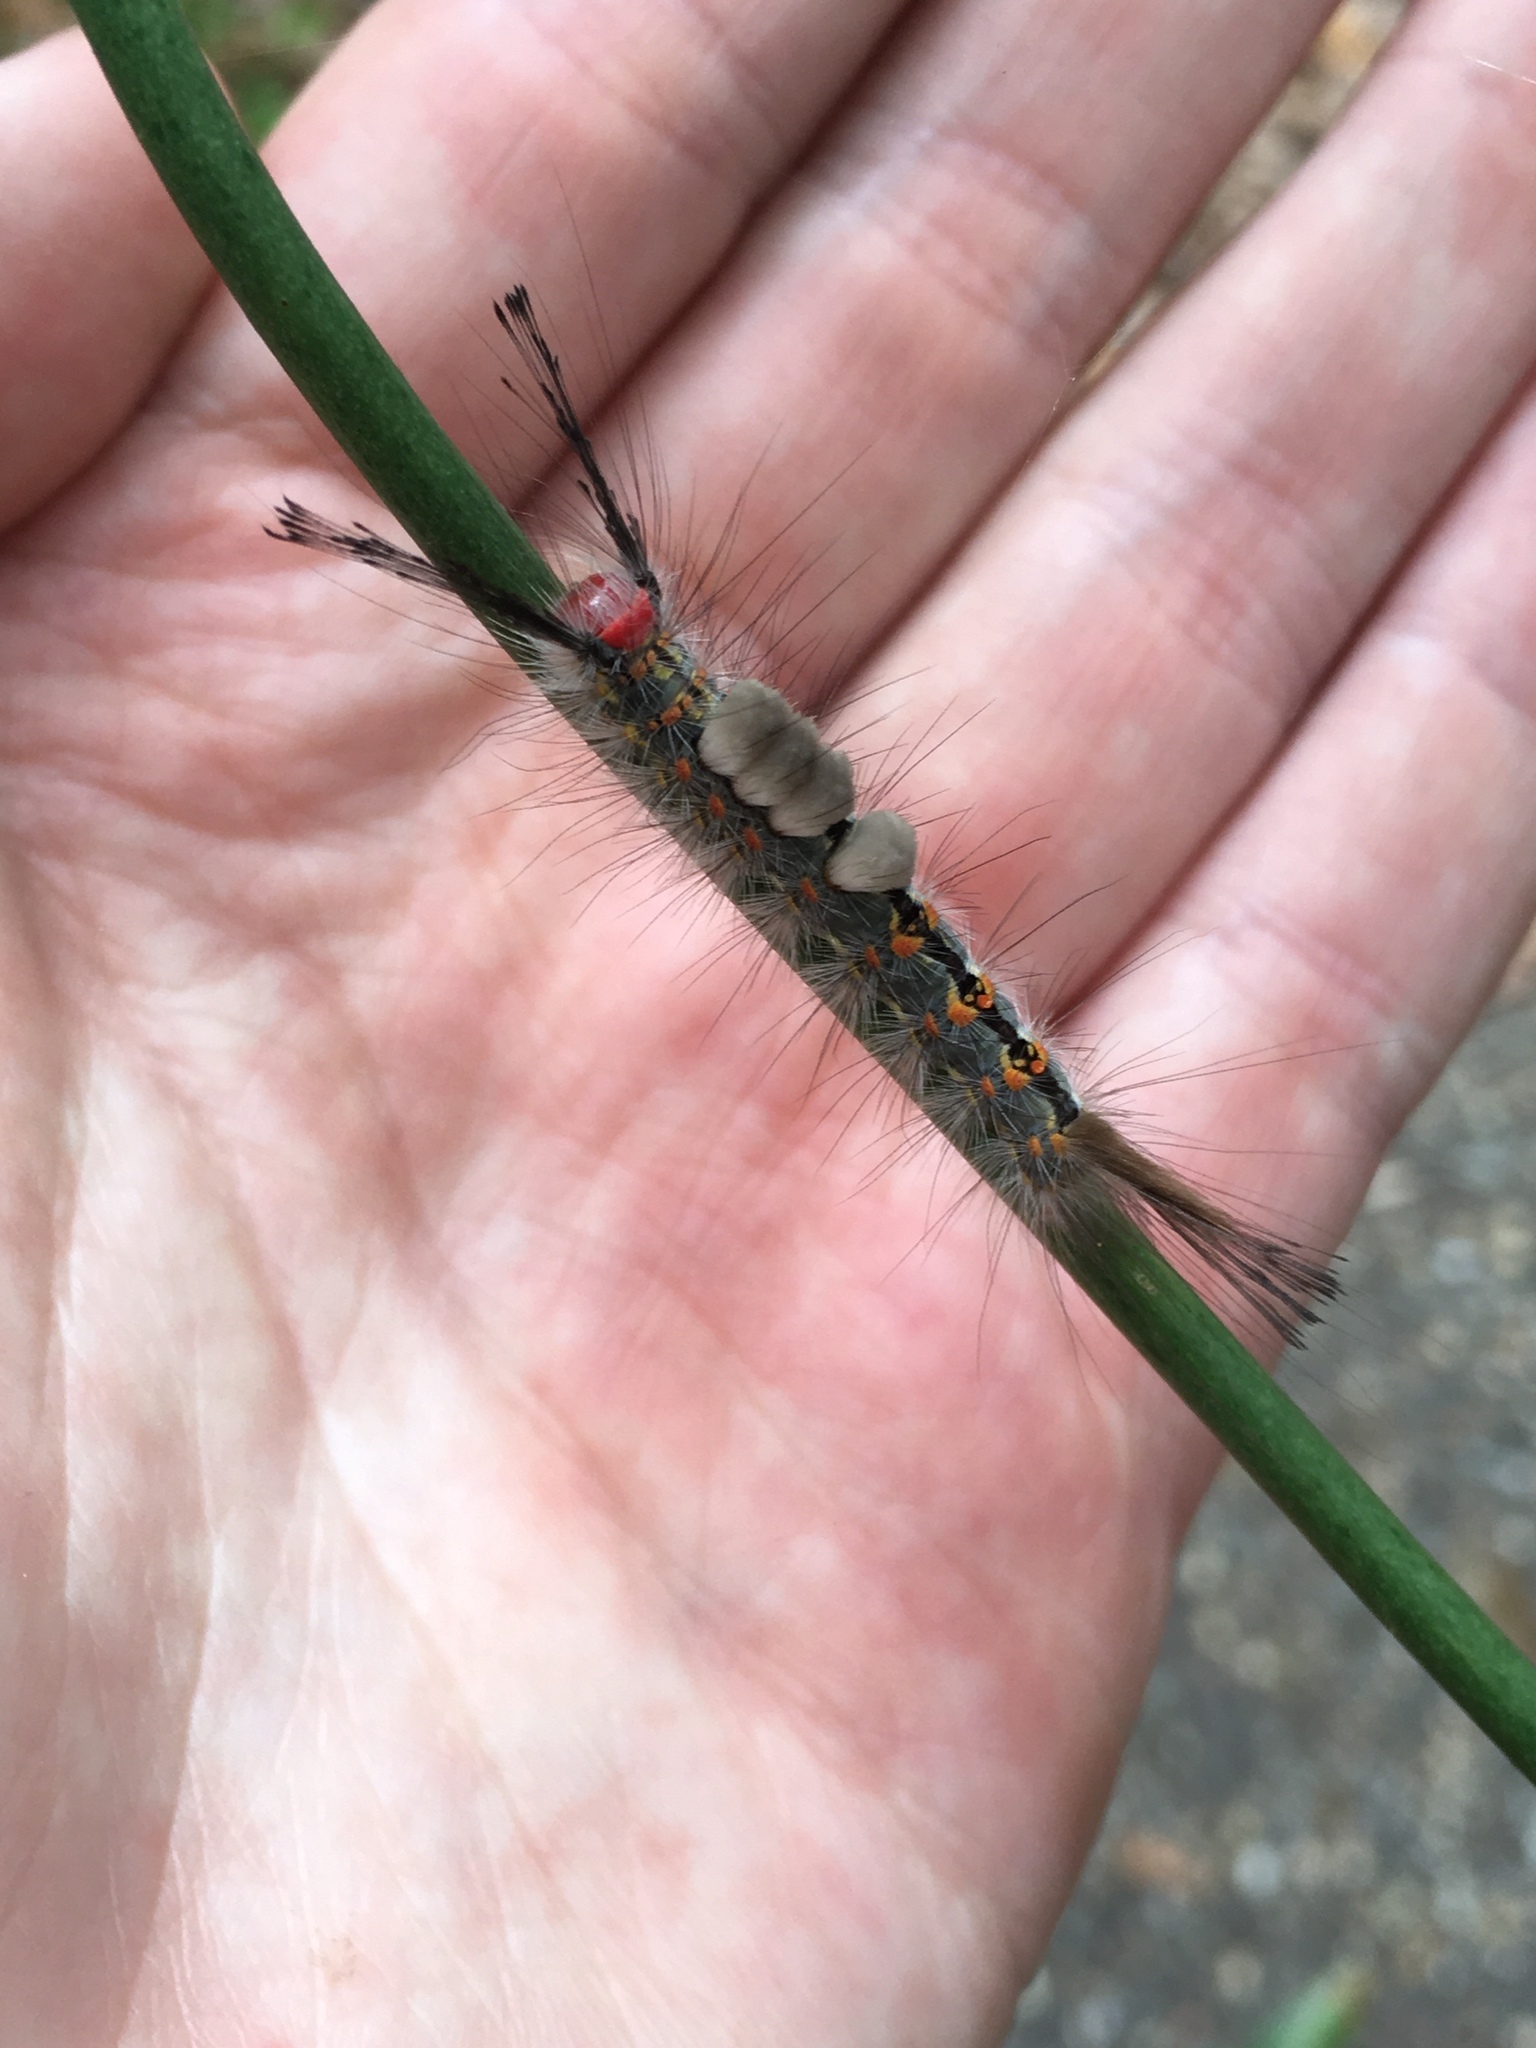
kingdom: Animalia
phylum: Arthropoda
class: Insecta
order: Lepidoptera
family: Erebidae
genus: Orgyia
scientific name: Orgyia detrita
